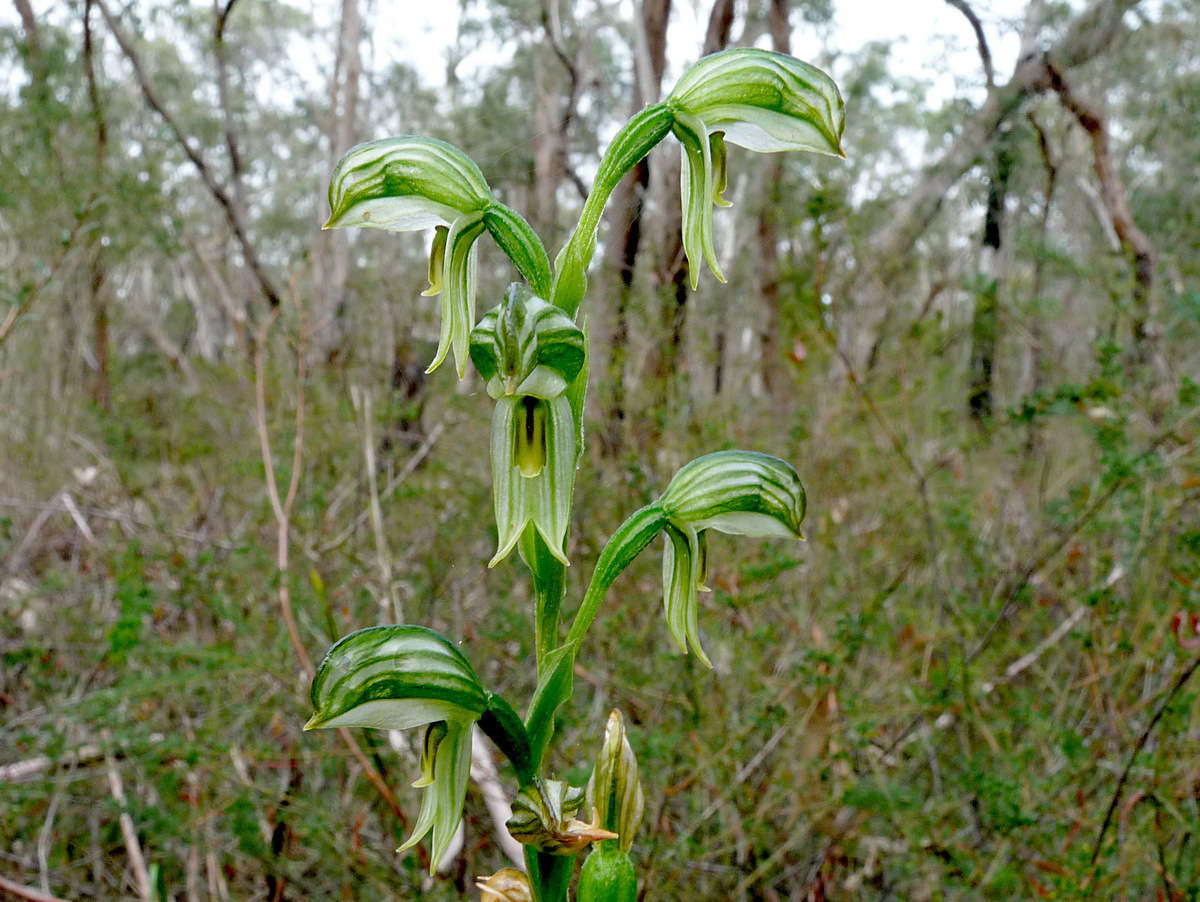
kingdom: Plantae
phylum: Tracheophyta
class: Liliopsida
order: Asparagales
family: Orchidaceae
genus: Pterostylis
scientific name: Pterostylis melagramma
